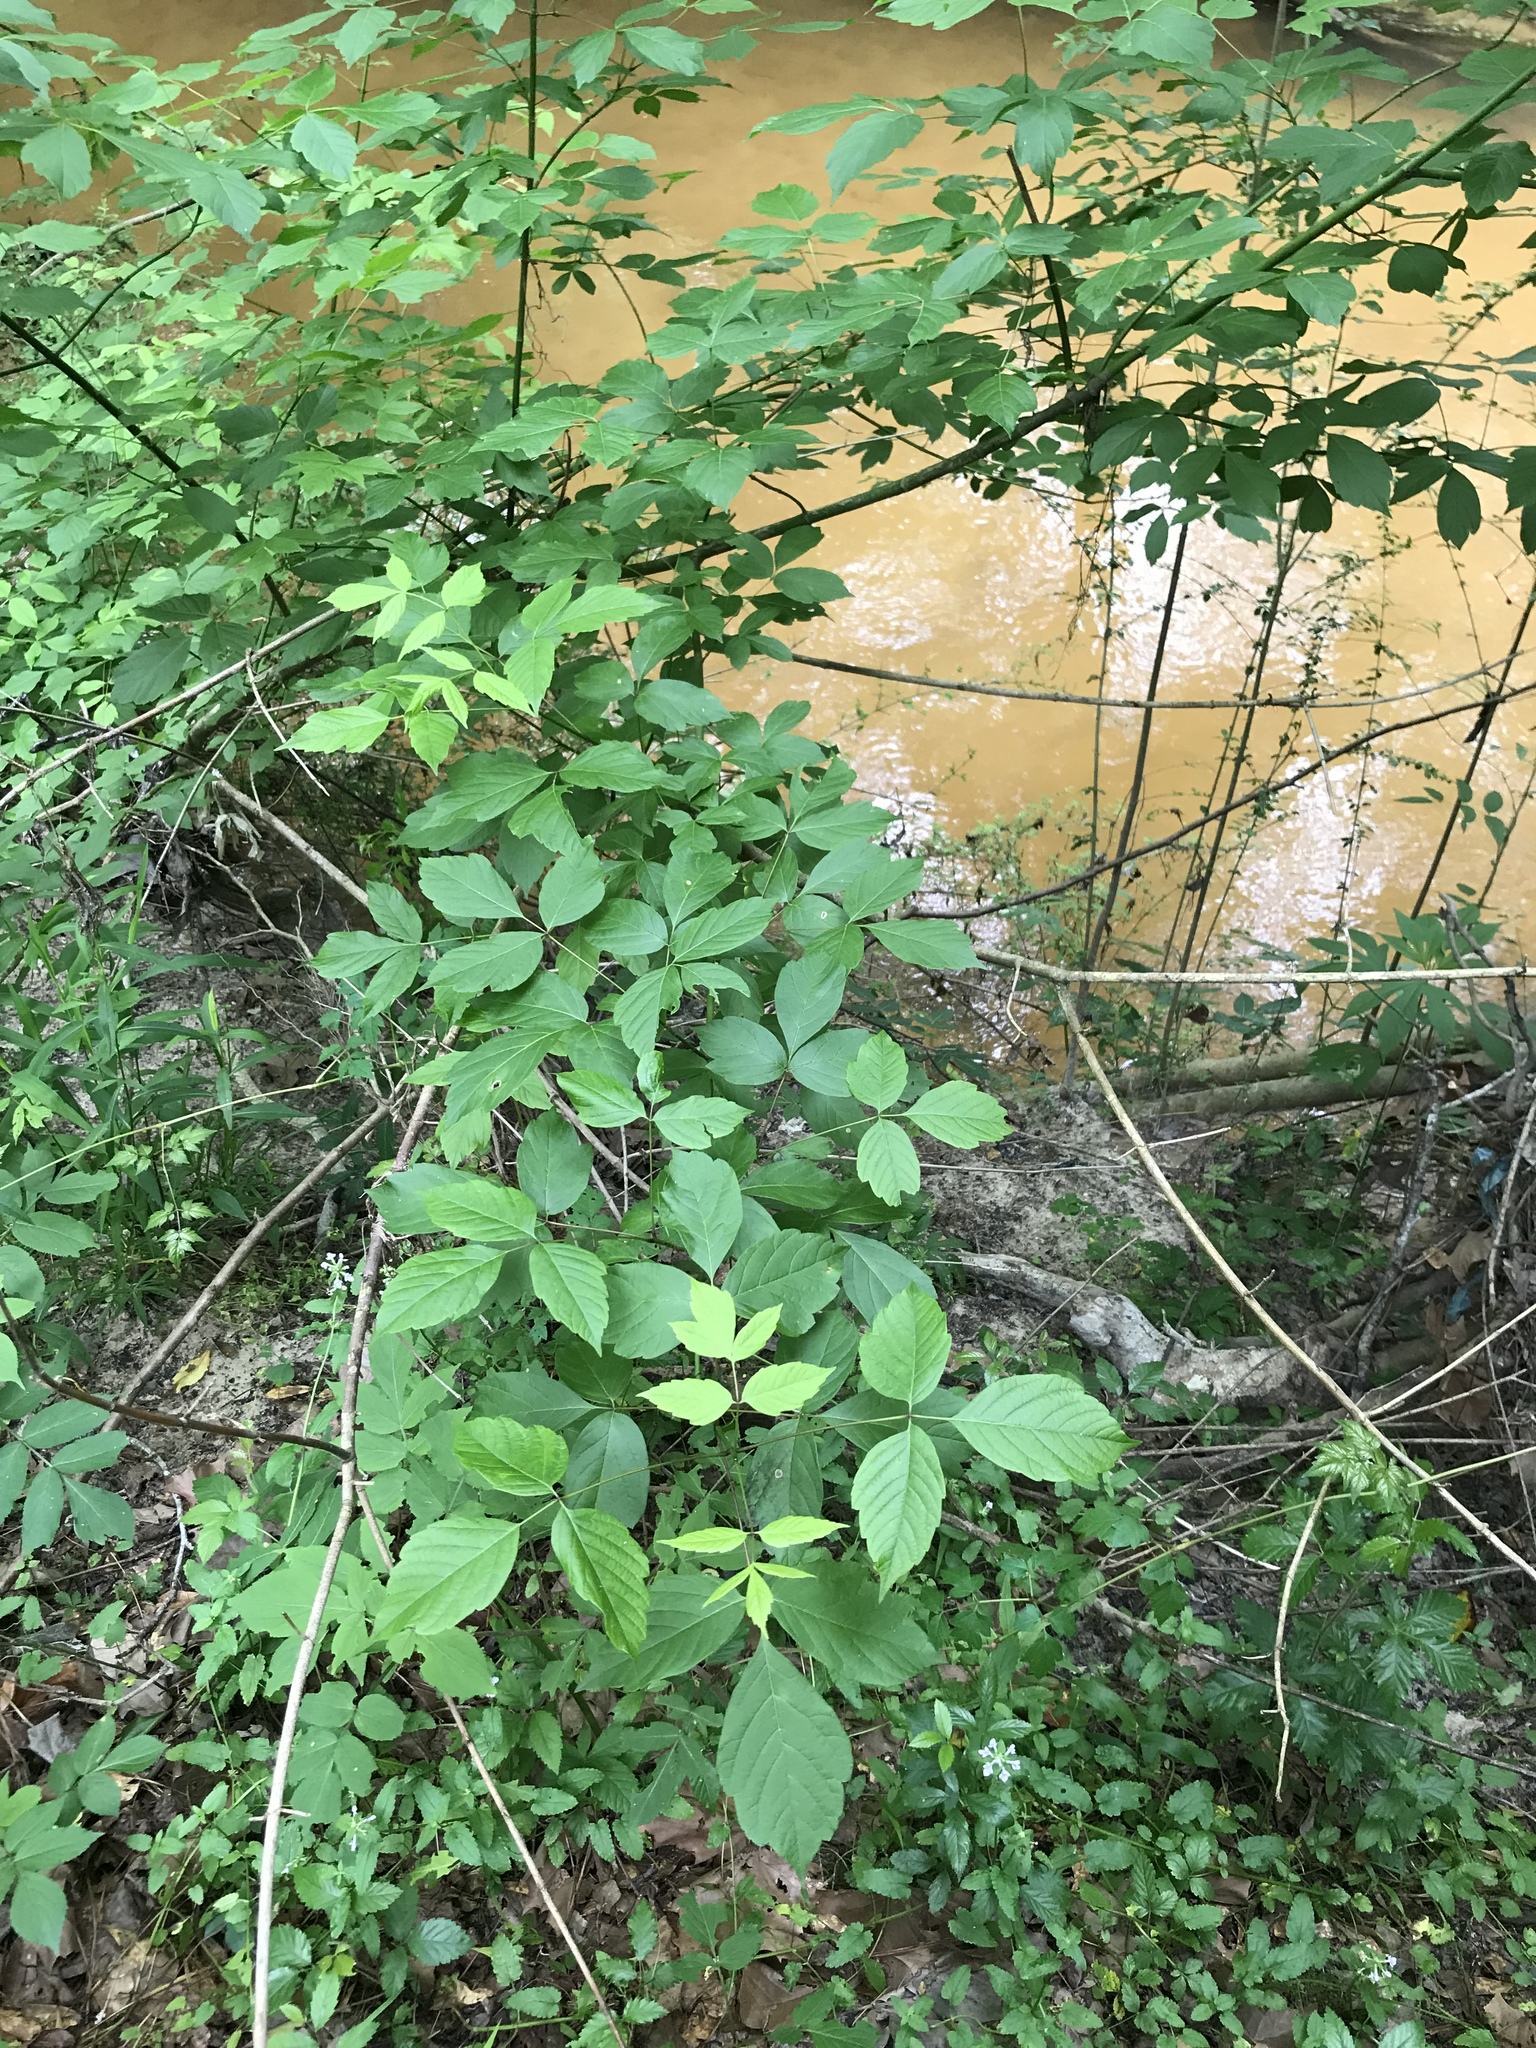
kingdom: Plantae
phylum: Tracheophyta
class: Magnoliopsida
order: Sapindales
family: Sapindaceae
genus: Acer
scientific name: Acer negundo
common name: Ashleaf maple
